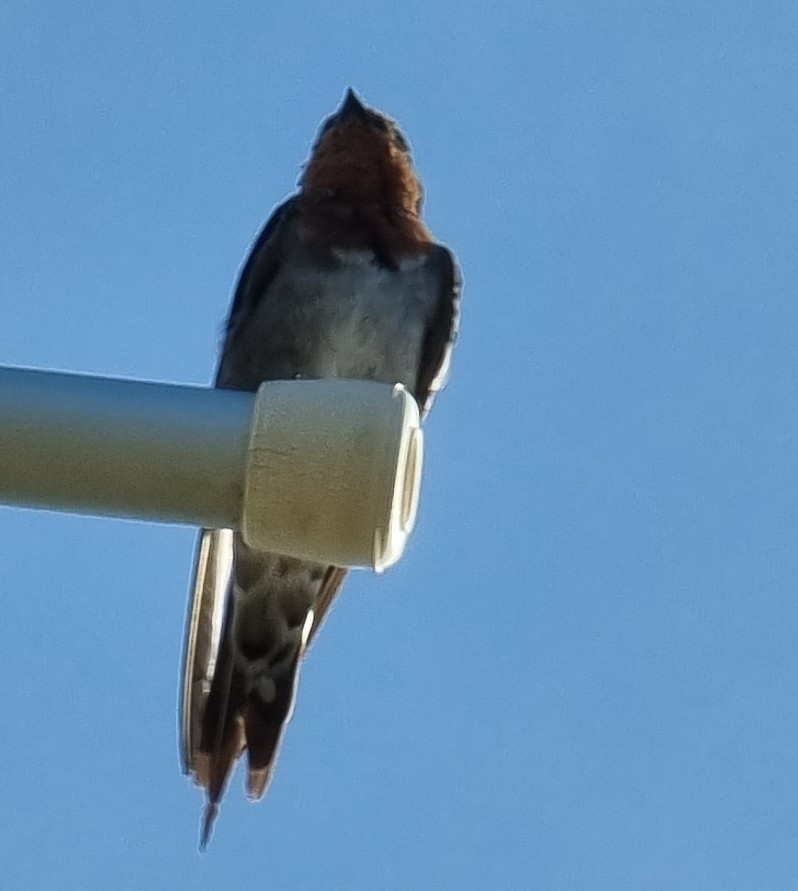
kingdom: Animalia
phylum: Chordata
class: Aves
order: Passeriformes
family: Hirundinidae
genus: Hirundo
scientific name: Hirundo neoxena
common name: Welcome swallow
